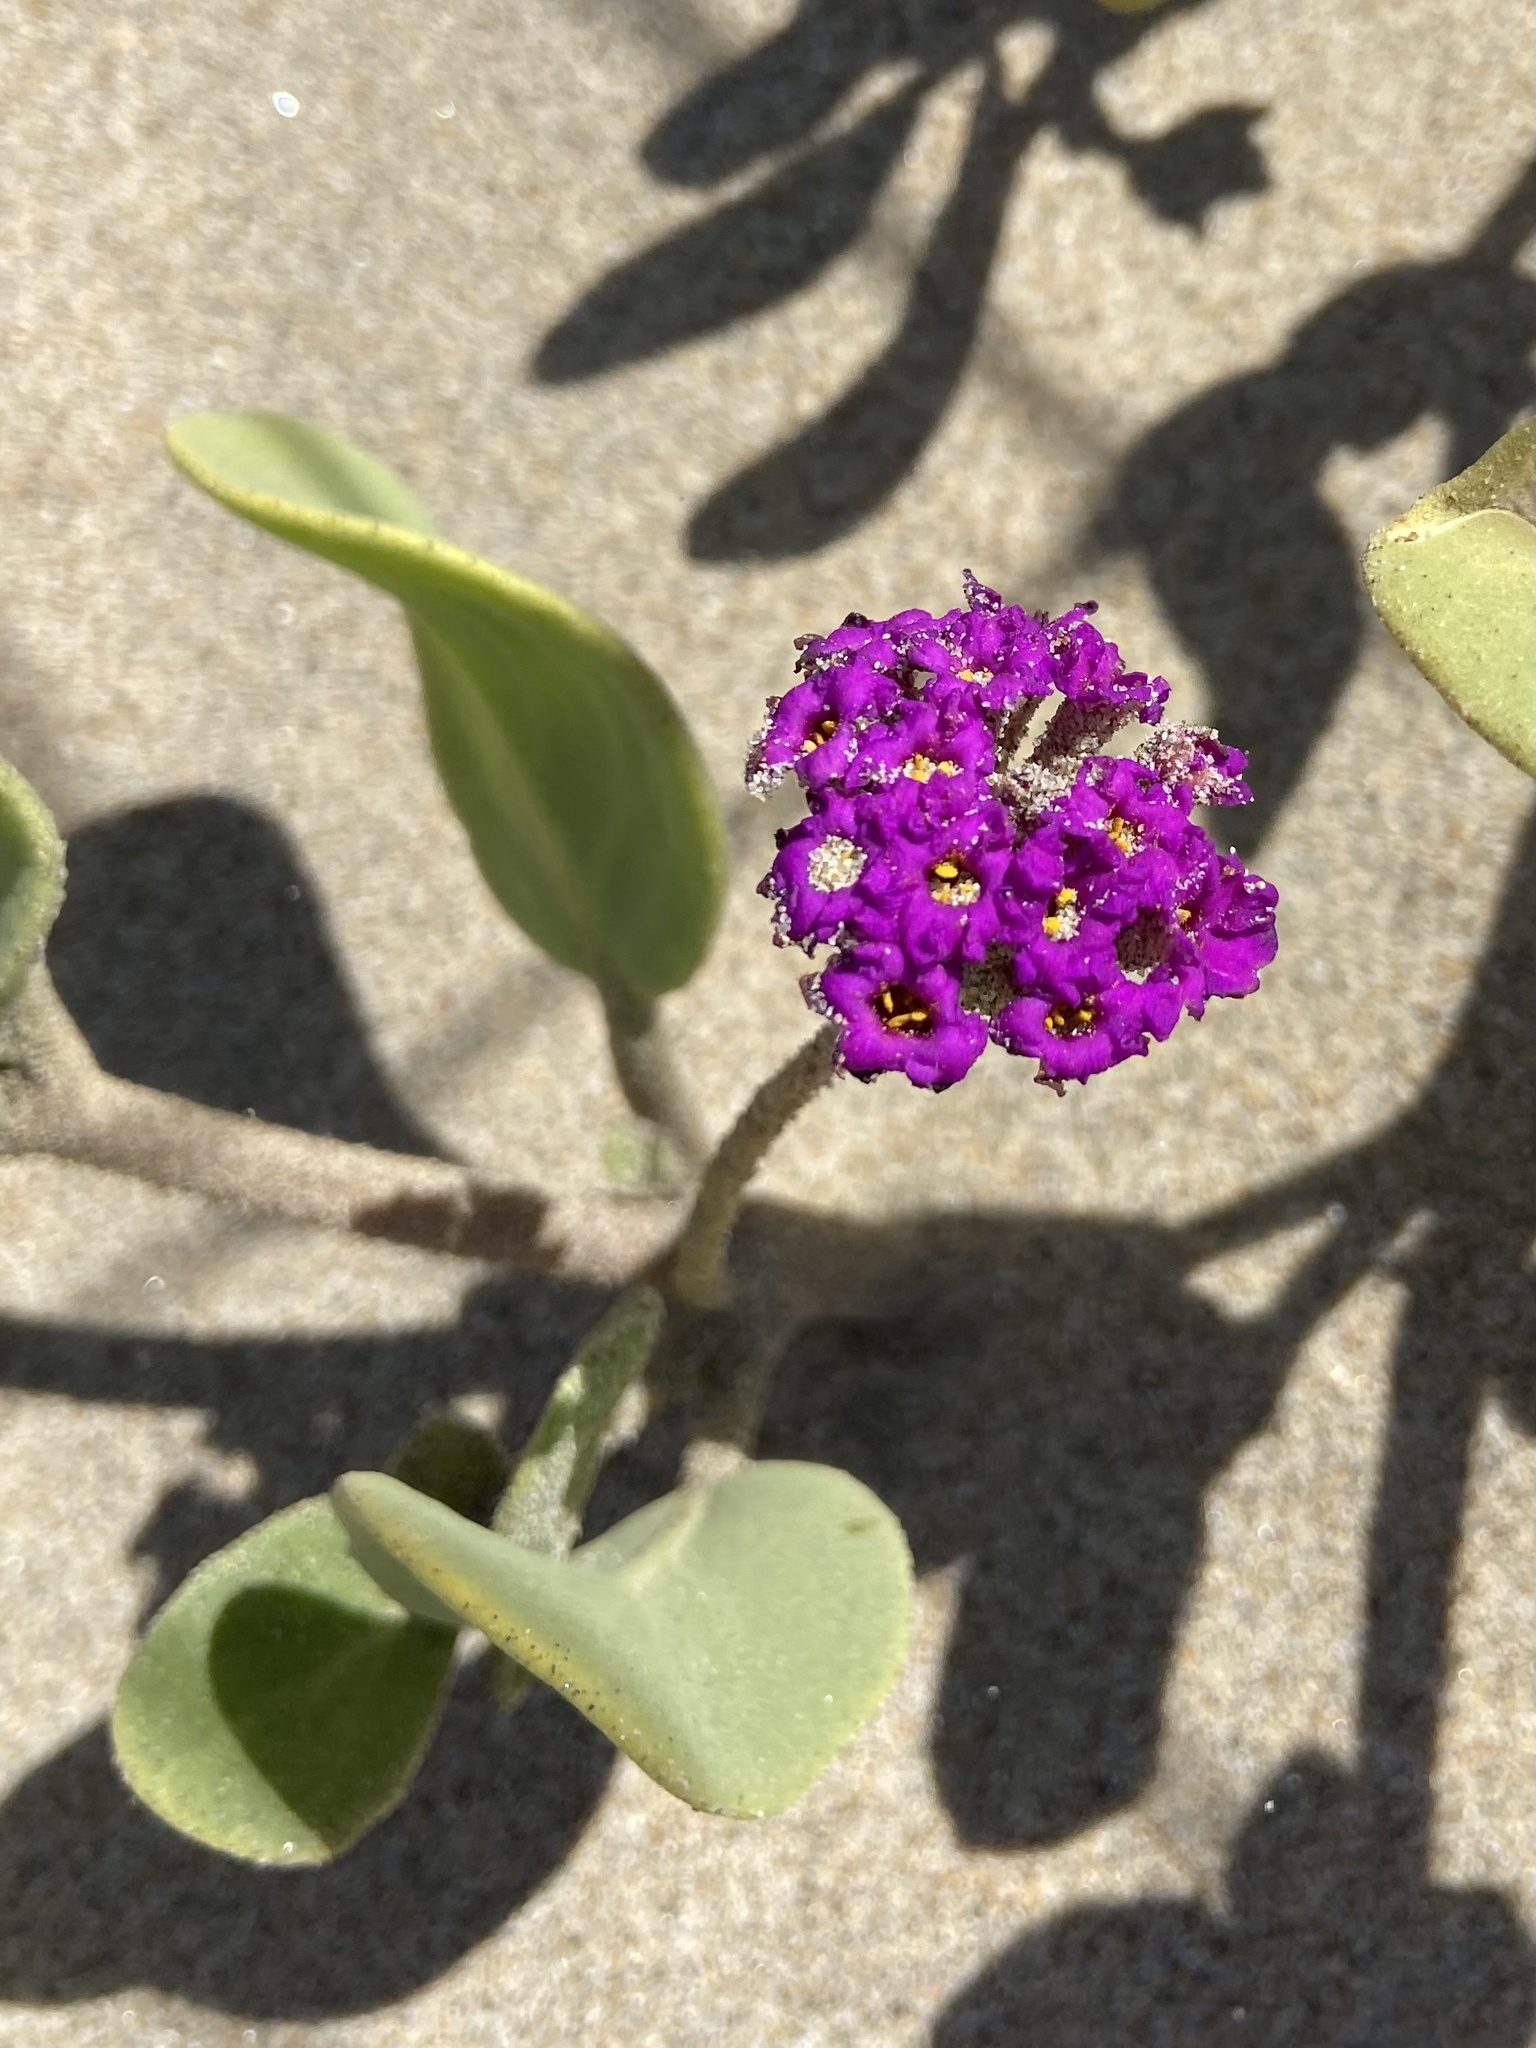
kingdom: Plantae
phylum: Tracheophyta
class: Magnoliopsida
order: Caryophyllales
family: Nyctaginaceae
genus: Abronia
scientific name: Abronia maritima
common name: Red sand-verbena
